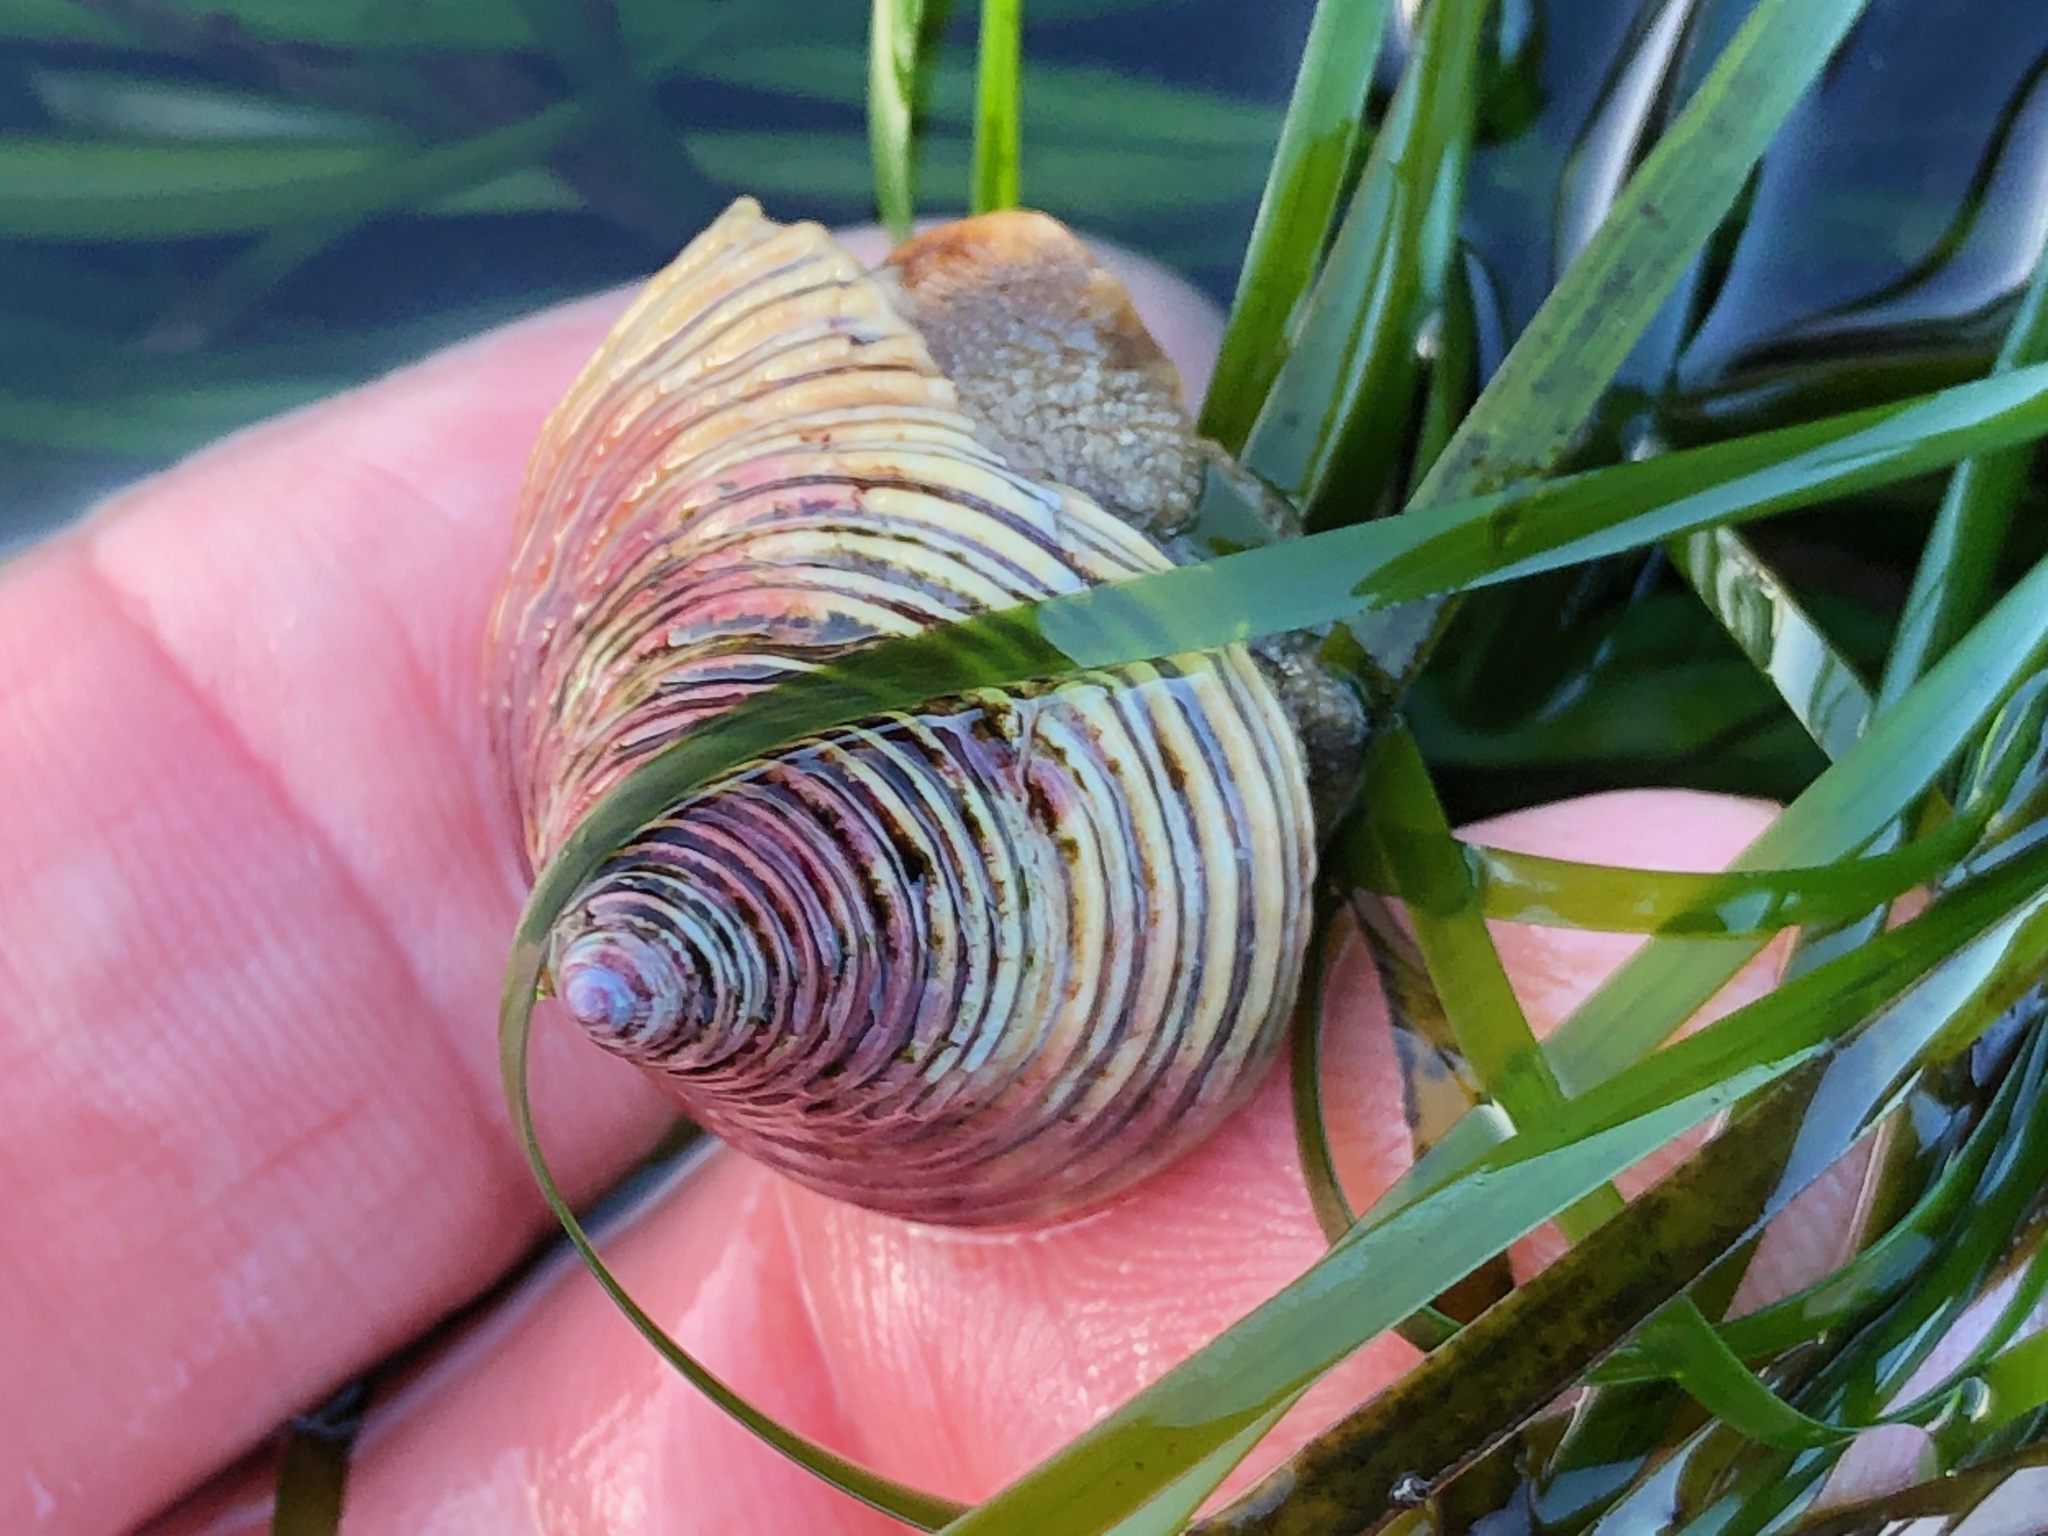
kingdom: Animalia
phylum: Mollusca
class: Gastropoda
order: Trochida
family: Calliostomatidae
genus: Calliostoma
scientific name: Calliostoma canaliculatum
